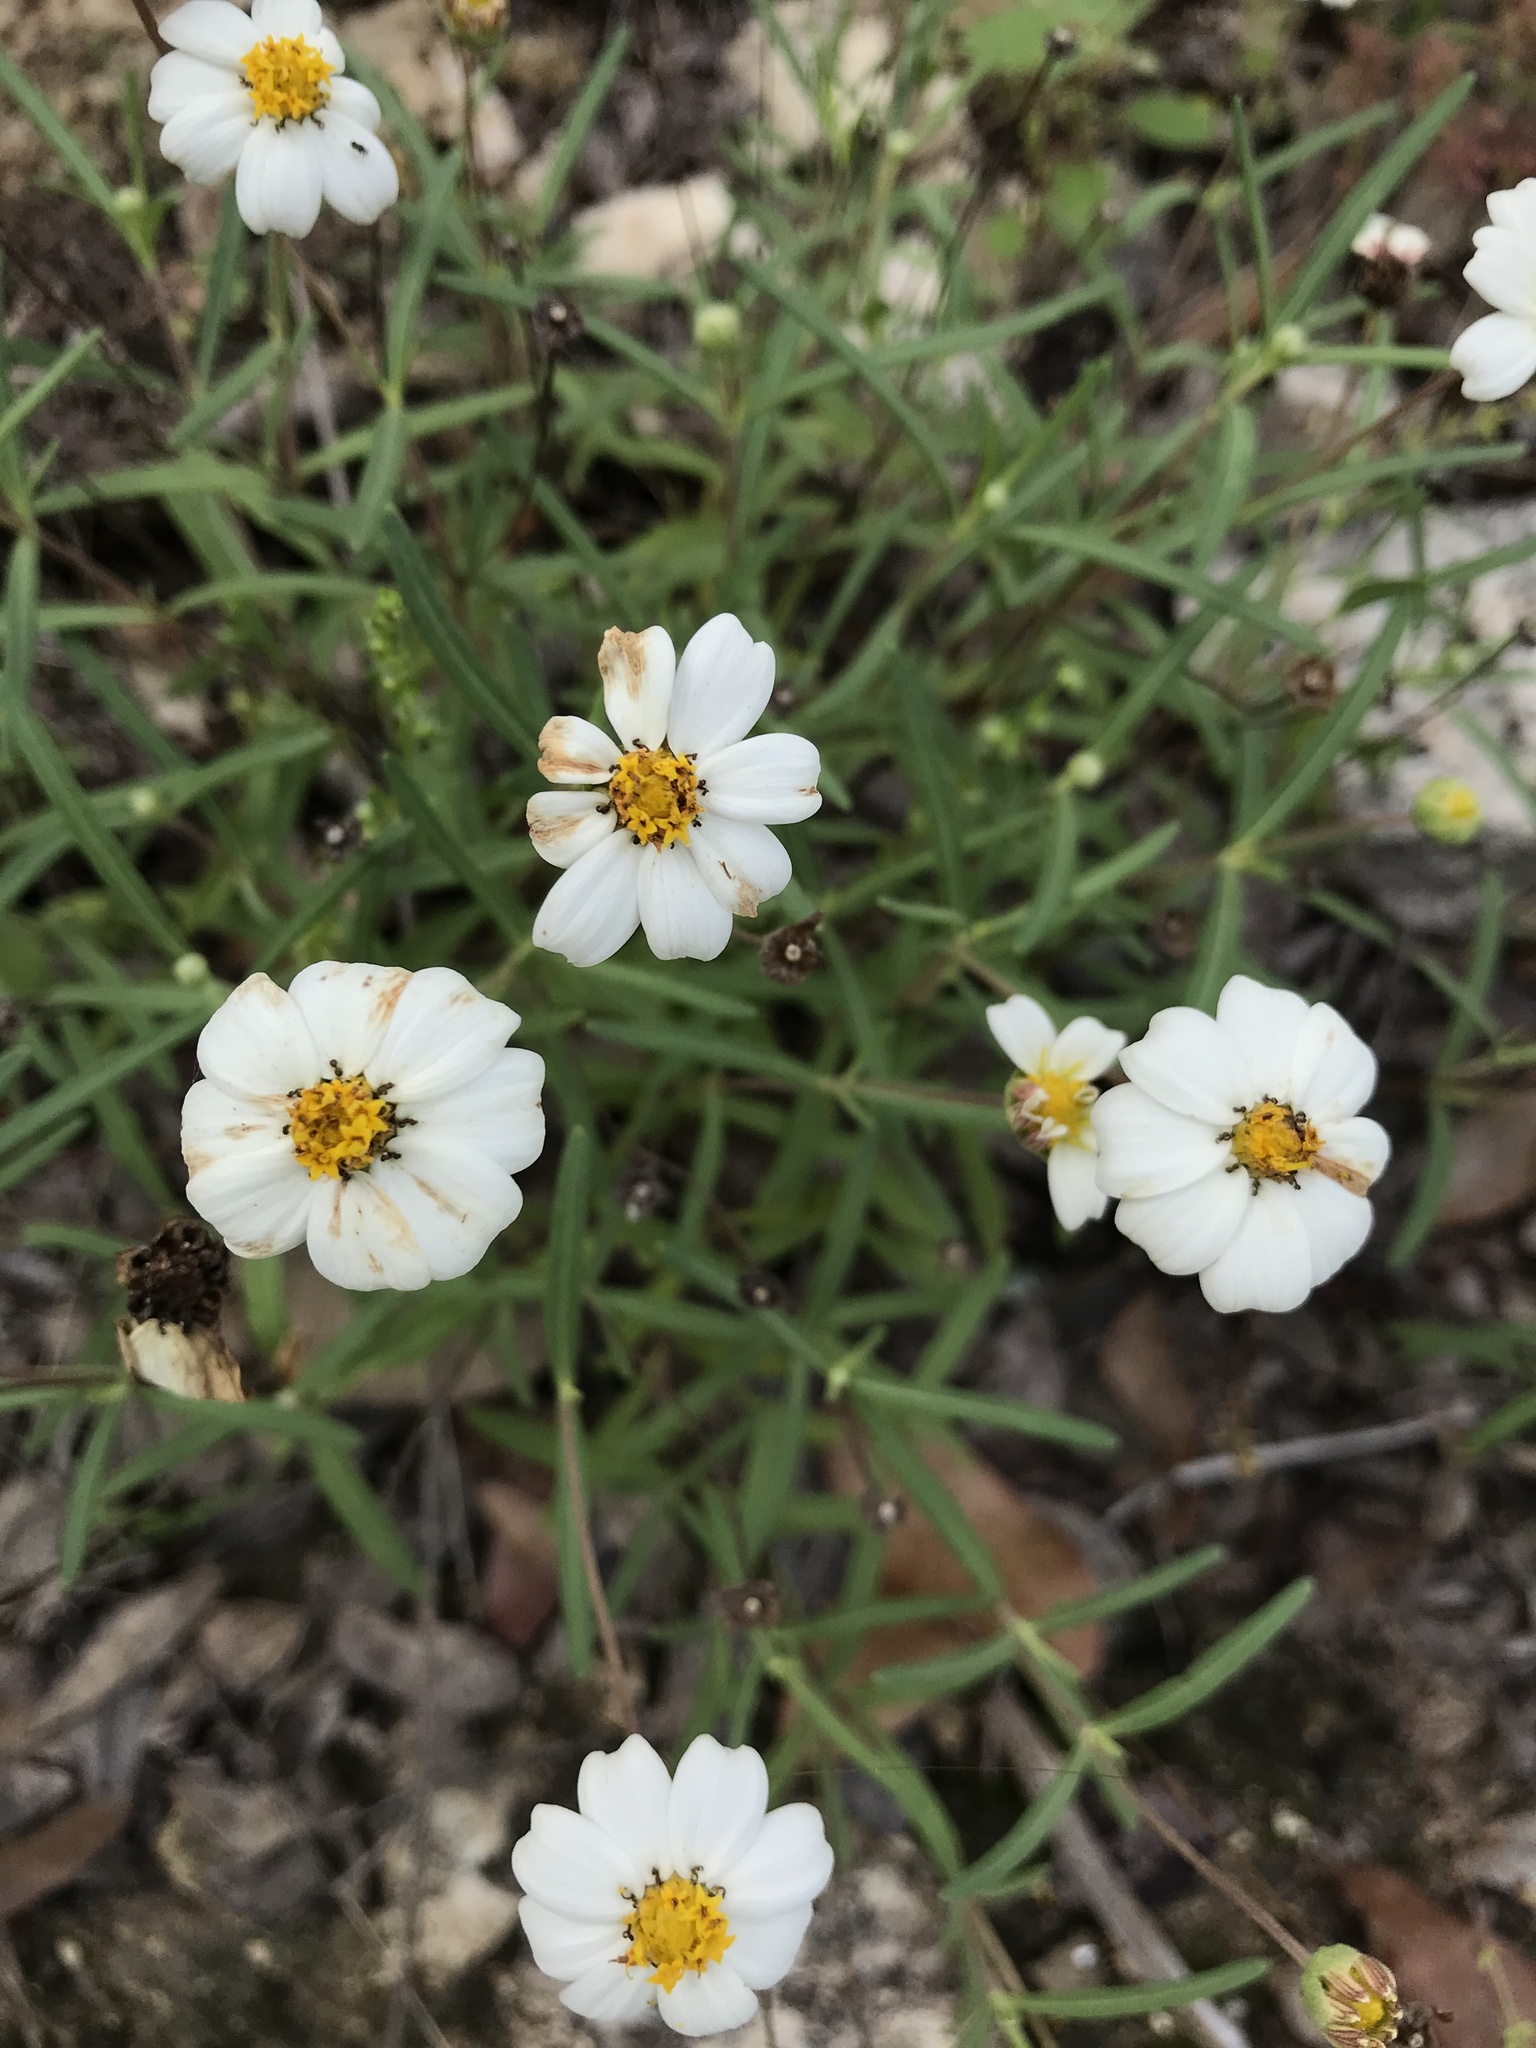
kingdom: Plantae
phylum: Tracheophyta
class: Magnoliopsida
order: Asterales
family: Asteraceae
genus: Melampodium
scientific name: Melampodium leucanthum
